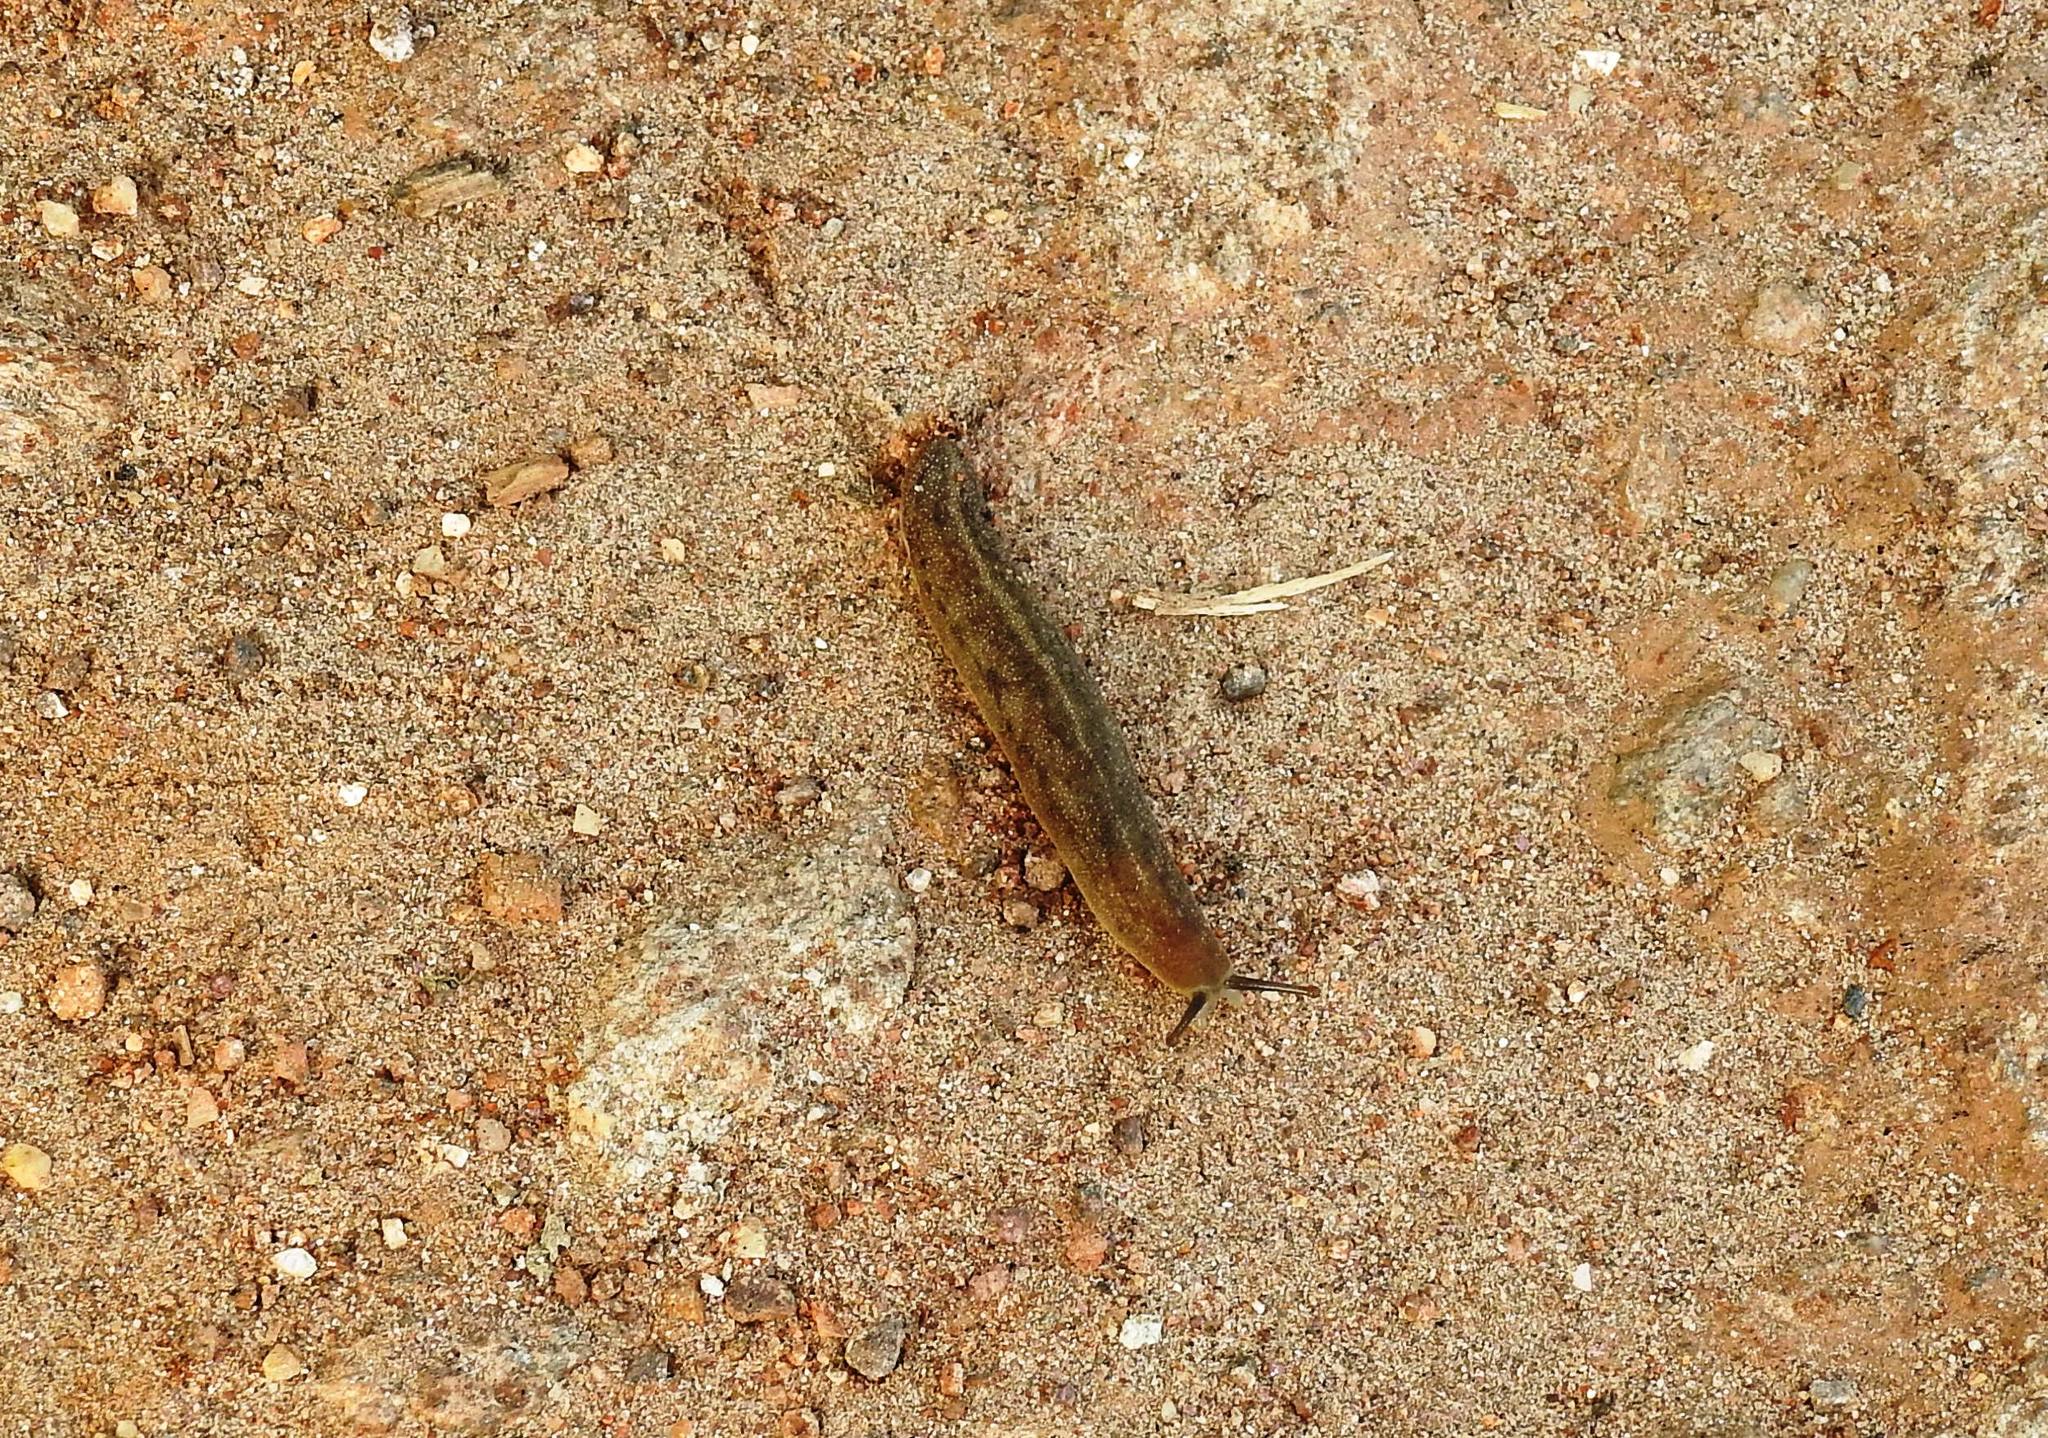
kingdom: Animalia
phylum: Mollusca
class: Gastropoda
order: Systellommatophora
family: Veronicellidae
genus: Laevicaulis
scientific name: Laevicaulis alte
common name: Tropical leatherleaf
